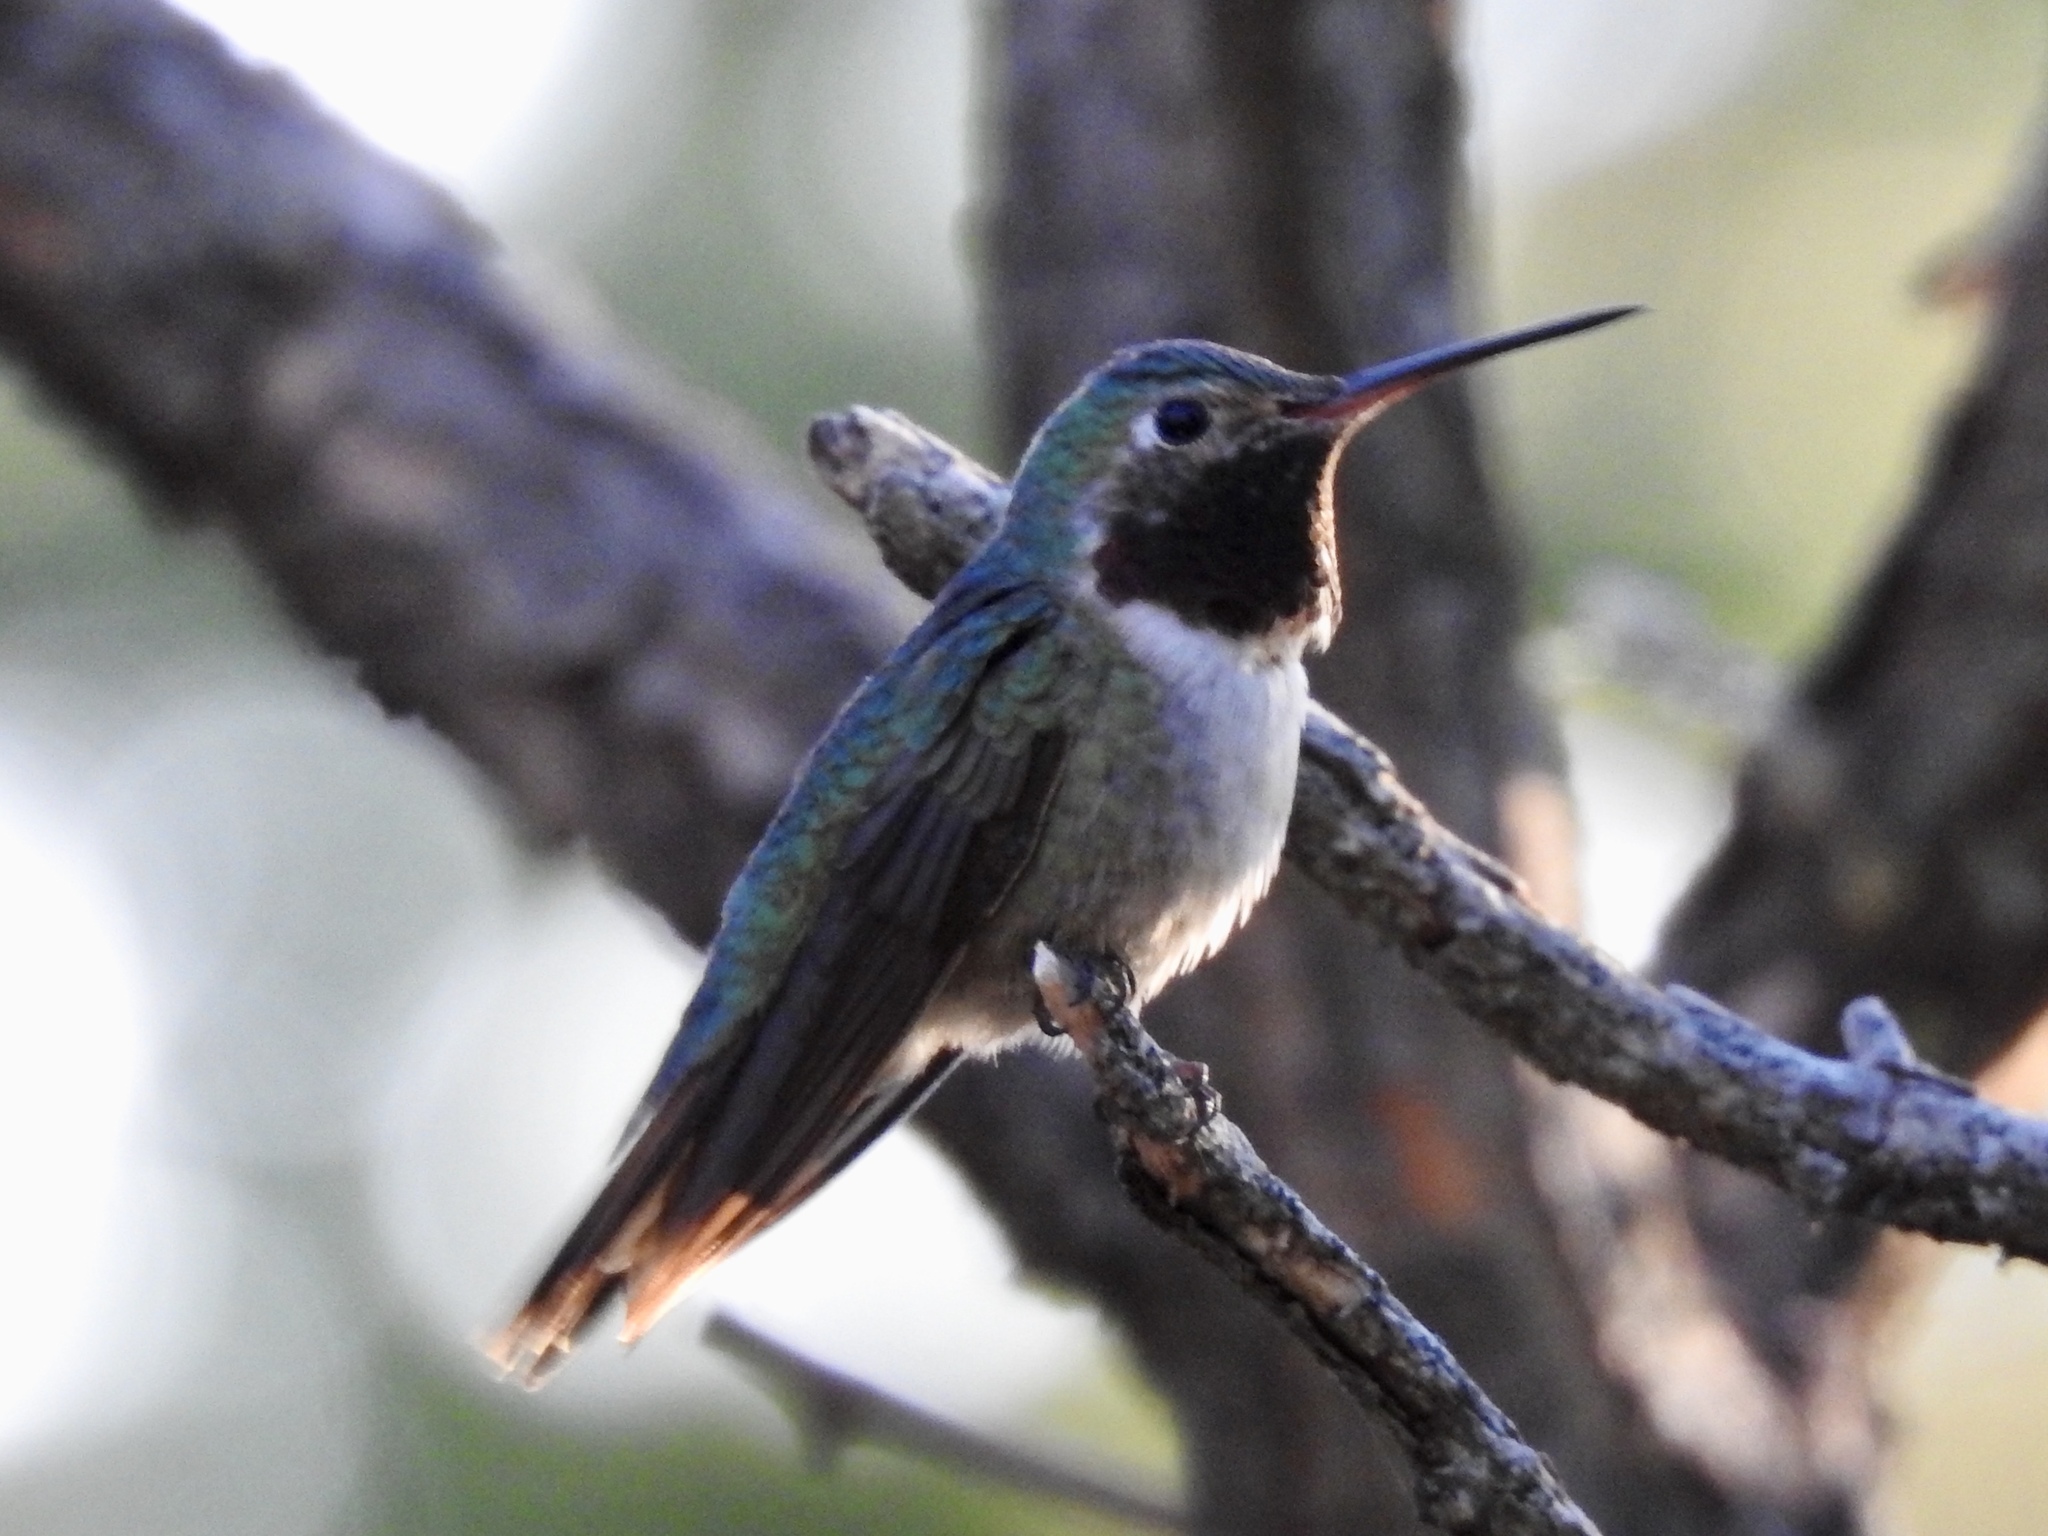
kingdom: Animalia
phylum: Chordata
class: Aves
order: Apodiformes
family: Trochilidae
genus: Selasphorus
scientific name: Selasphorus platycercus
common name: Broad-tailed hummingbird
